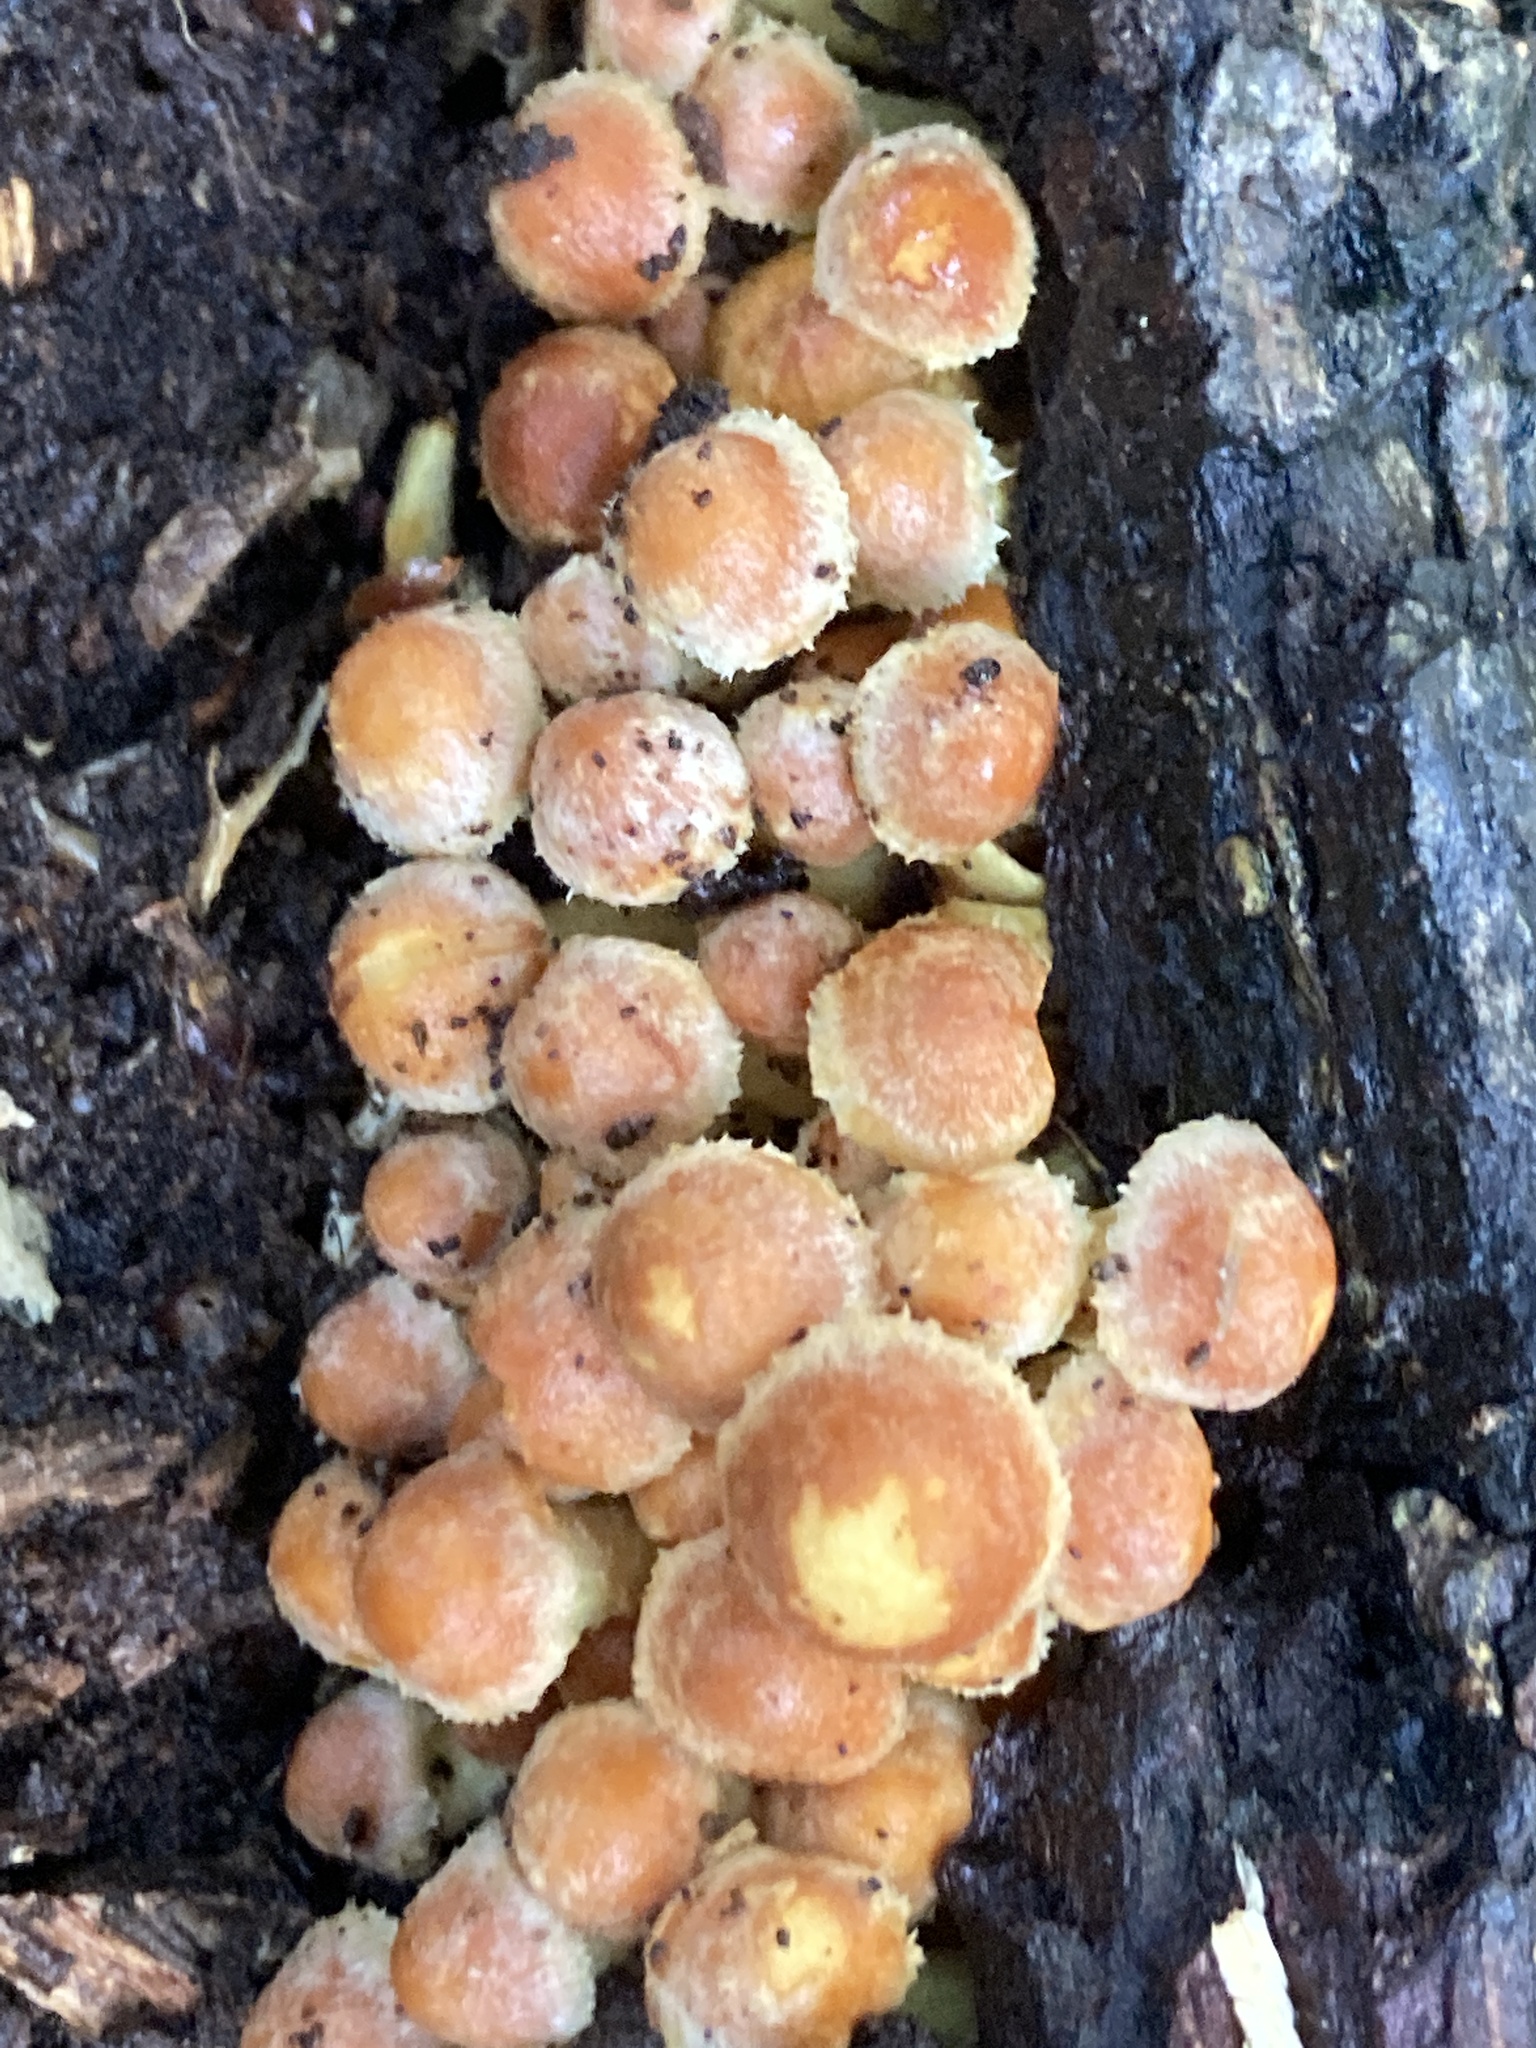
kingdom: Fungi
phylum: Basidiomycota
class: Agaricomycetes
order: Agaricales
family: Strophariaceae
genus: Hypholoma
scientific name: Hypholoma fasciculare
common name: Sulphur tuft
